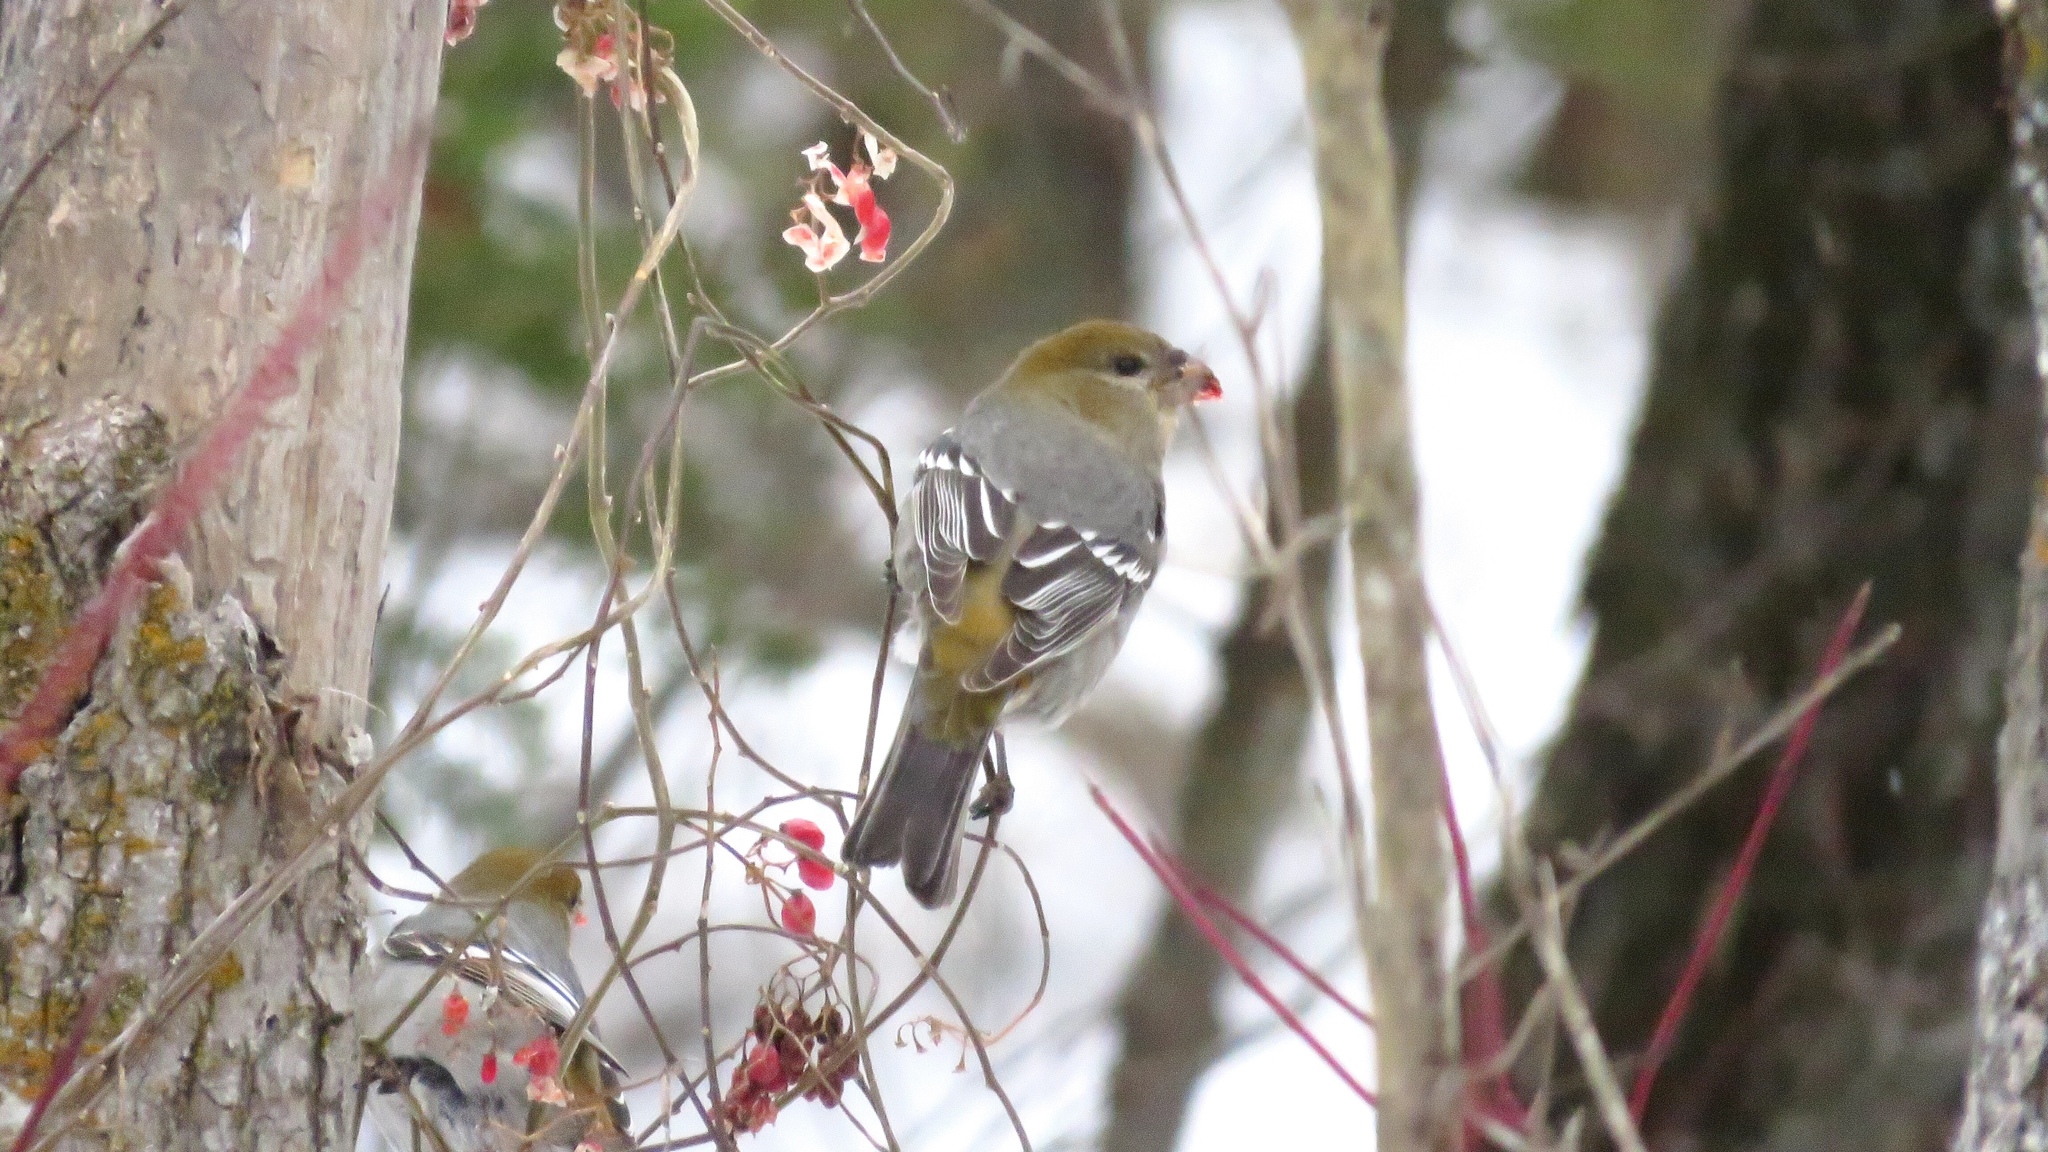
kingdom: Animalia
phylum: Chordata
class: Aves
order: Passeriformes
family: Fringillidae
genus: Pinicola
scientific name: Pinicola enucleator
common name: Pine grosbeak
